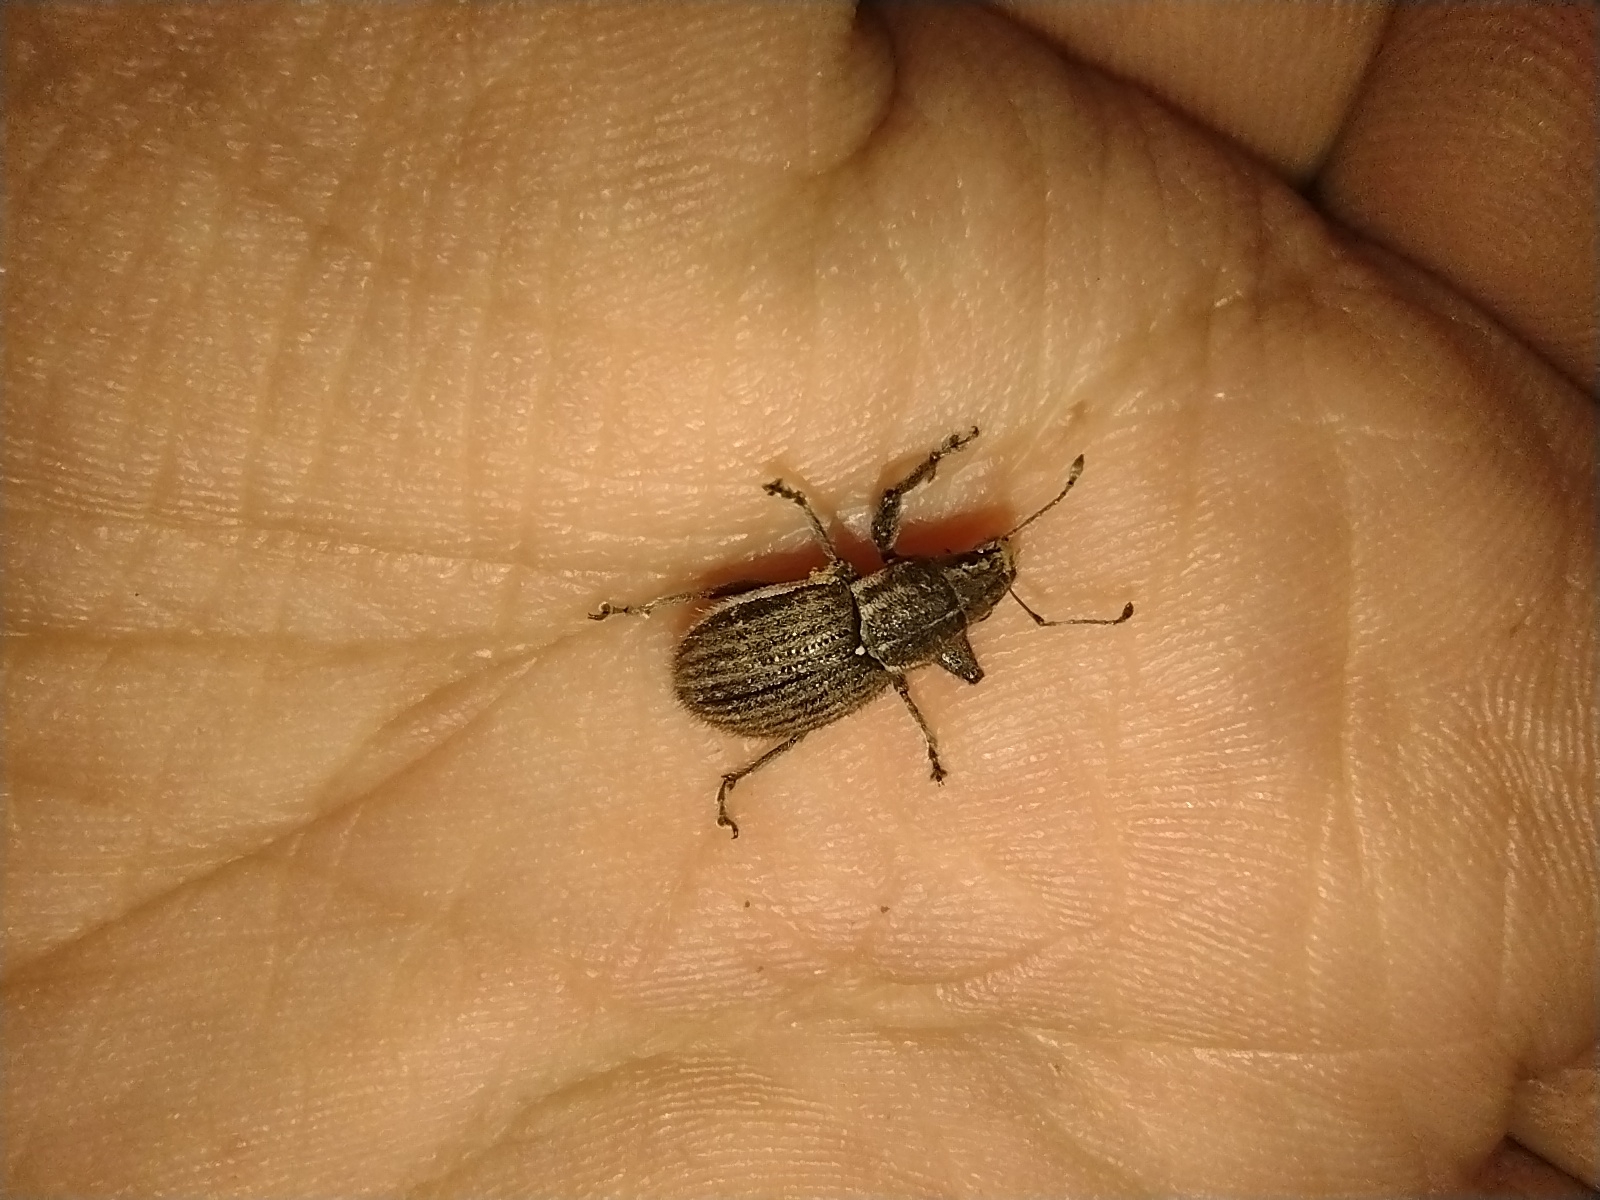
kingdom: Animalia
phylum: Arthropoda
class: Insecta
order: Coleoptera
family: Curculionidae
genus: Naupactus
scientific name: Naupactus leucoloma
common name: Whitefringed beetle
